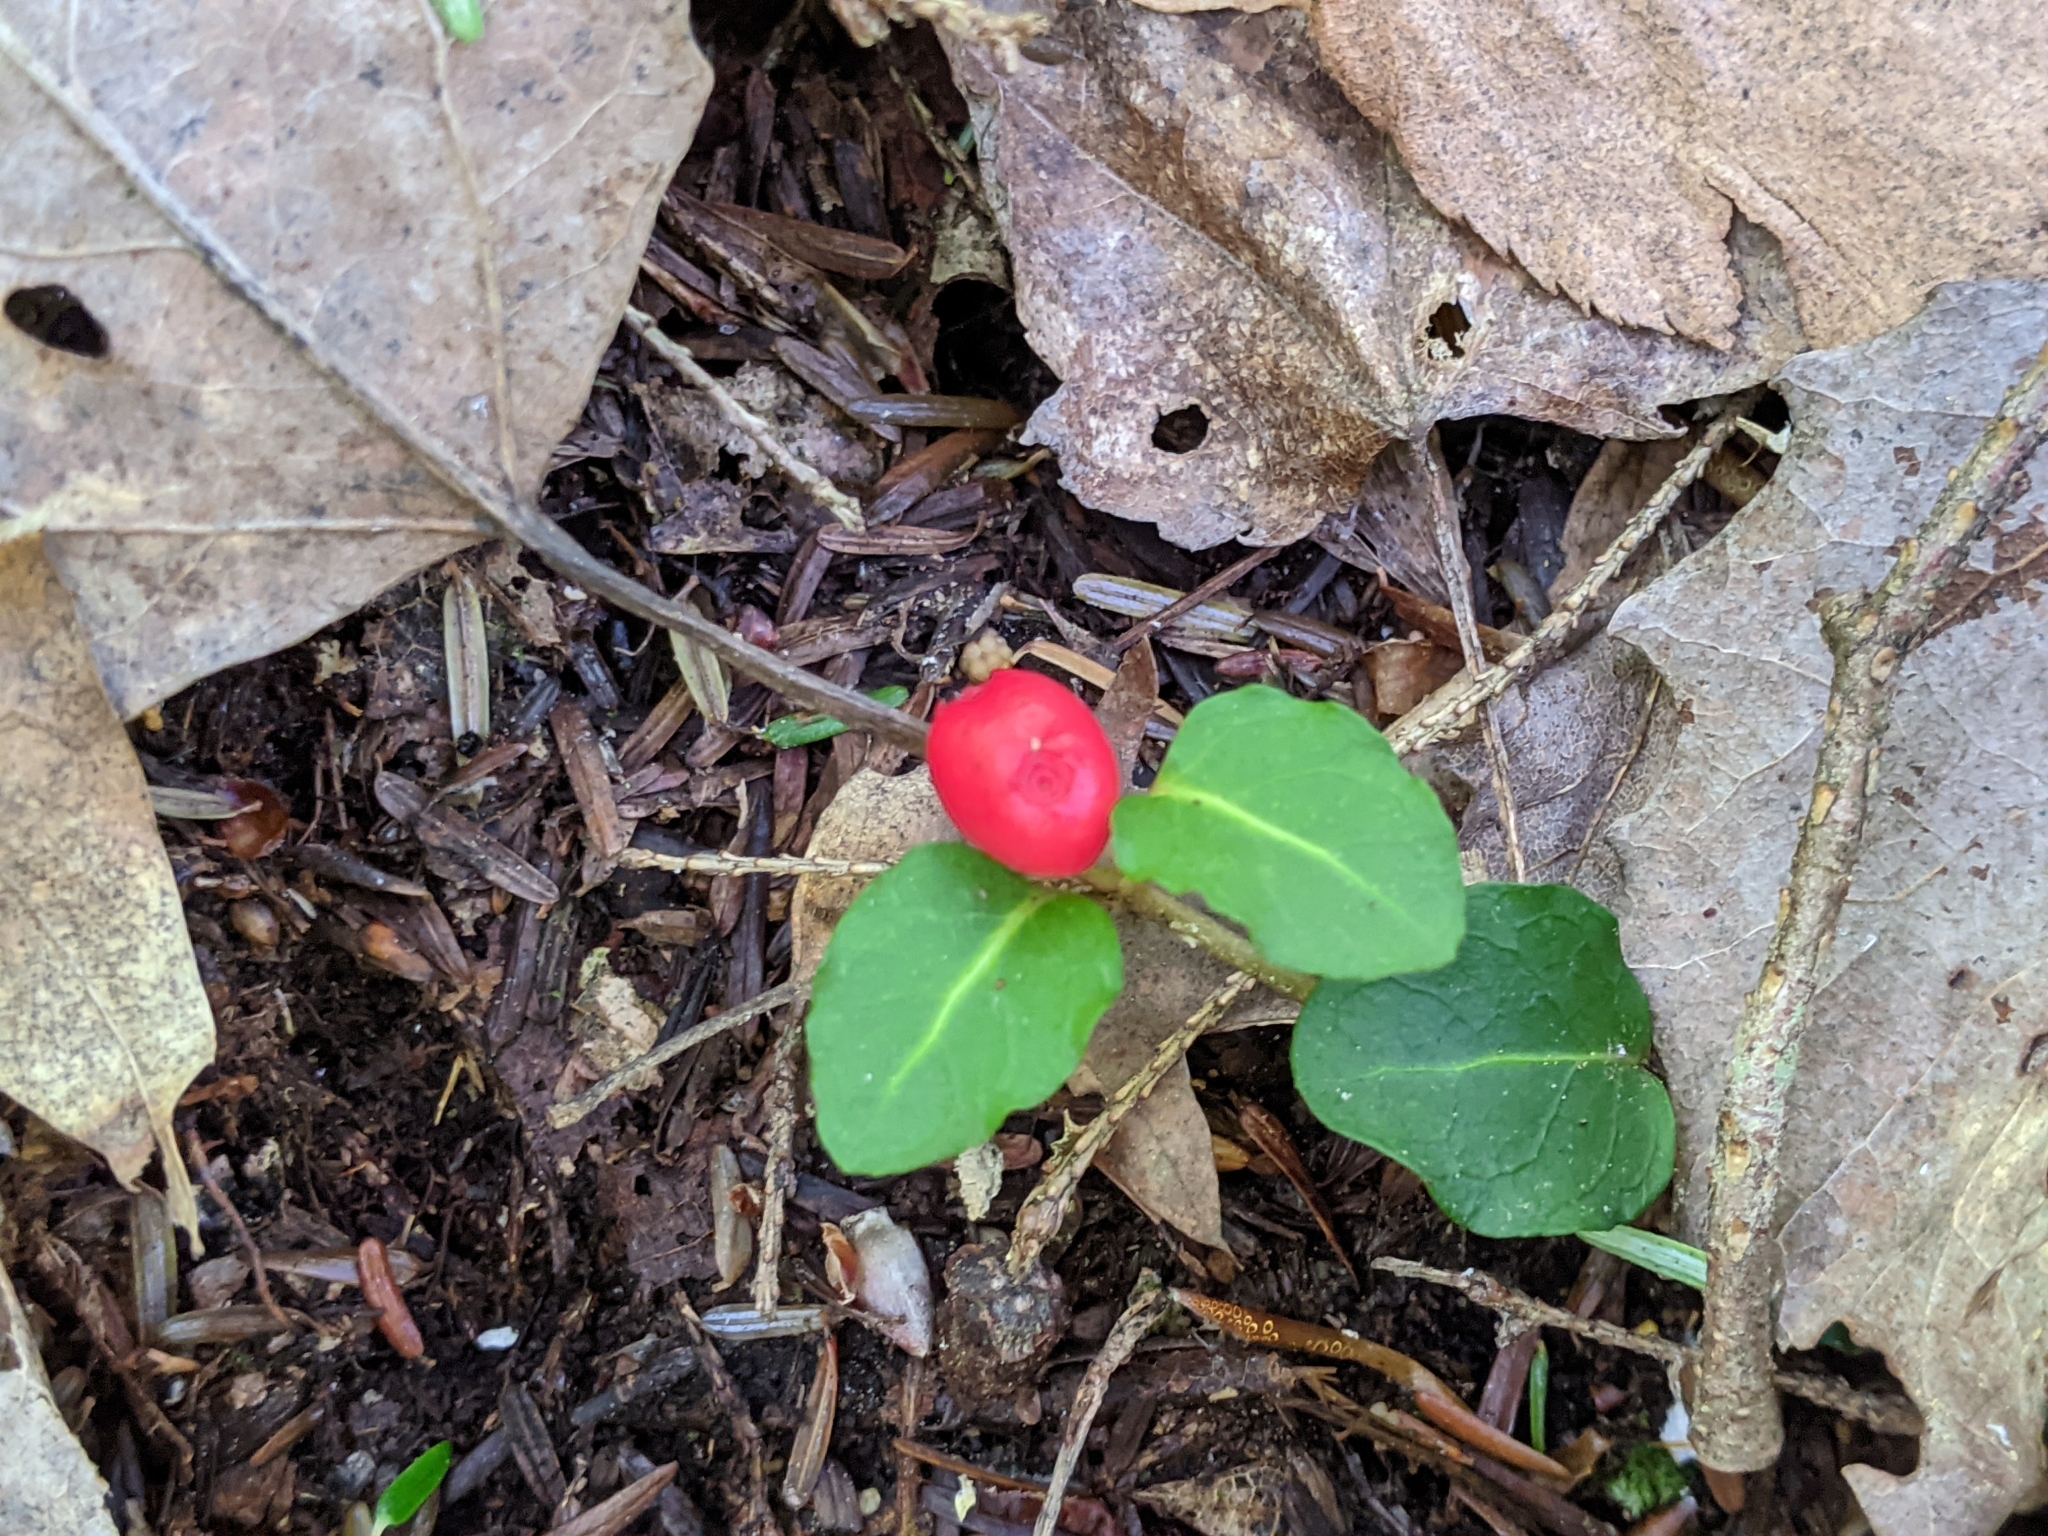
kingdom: Plantae
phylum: Tracheophyta
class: Magnoliopsida
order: Gentianales
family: Rubiaceae
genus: Mitchella
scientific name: Mitchella repens
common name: Partridge-berry
